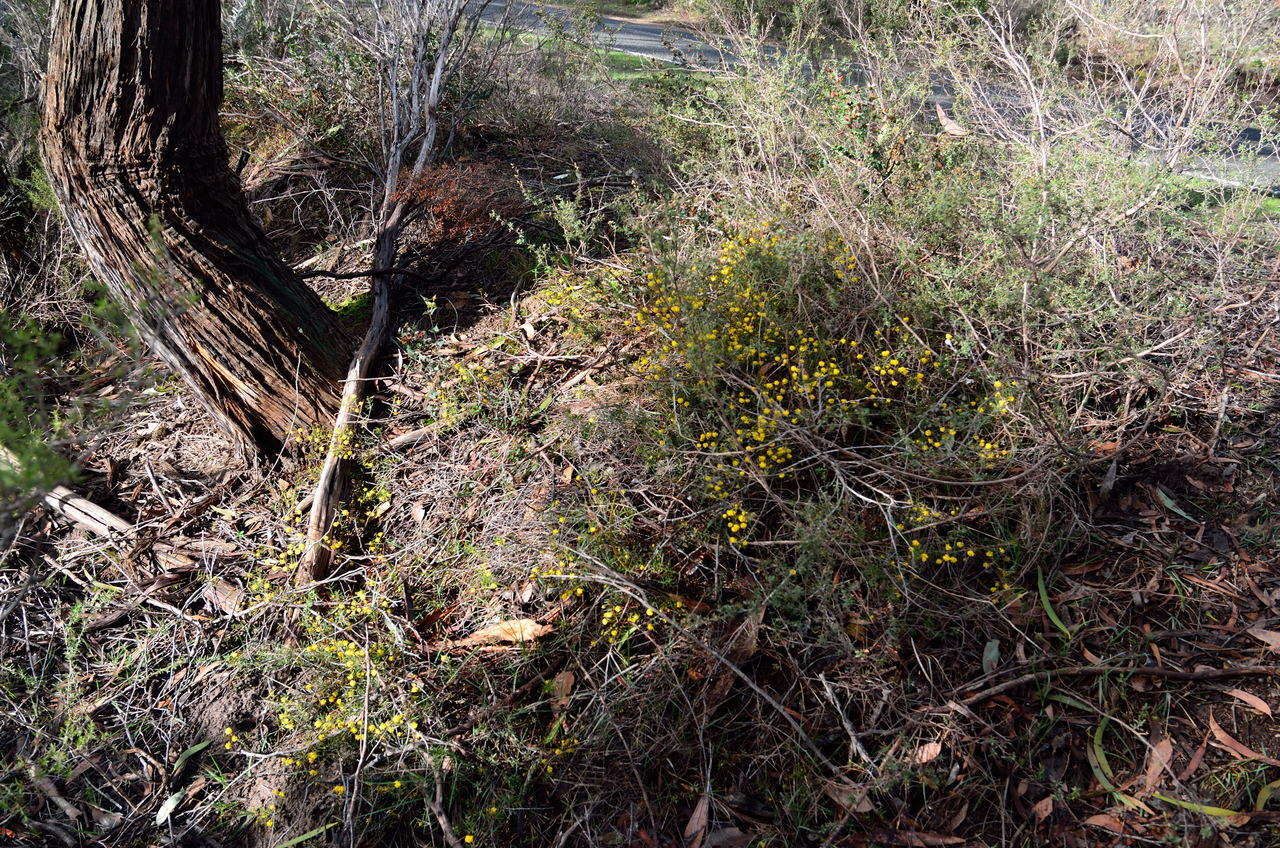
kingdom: Plantae
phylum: Tracheophyta
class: Magnoliopsida
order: Fabales
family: Fabaceae
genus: Acacia
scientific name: Acacia brownii
